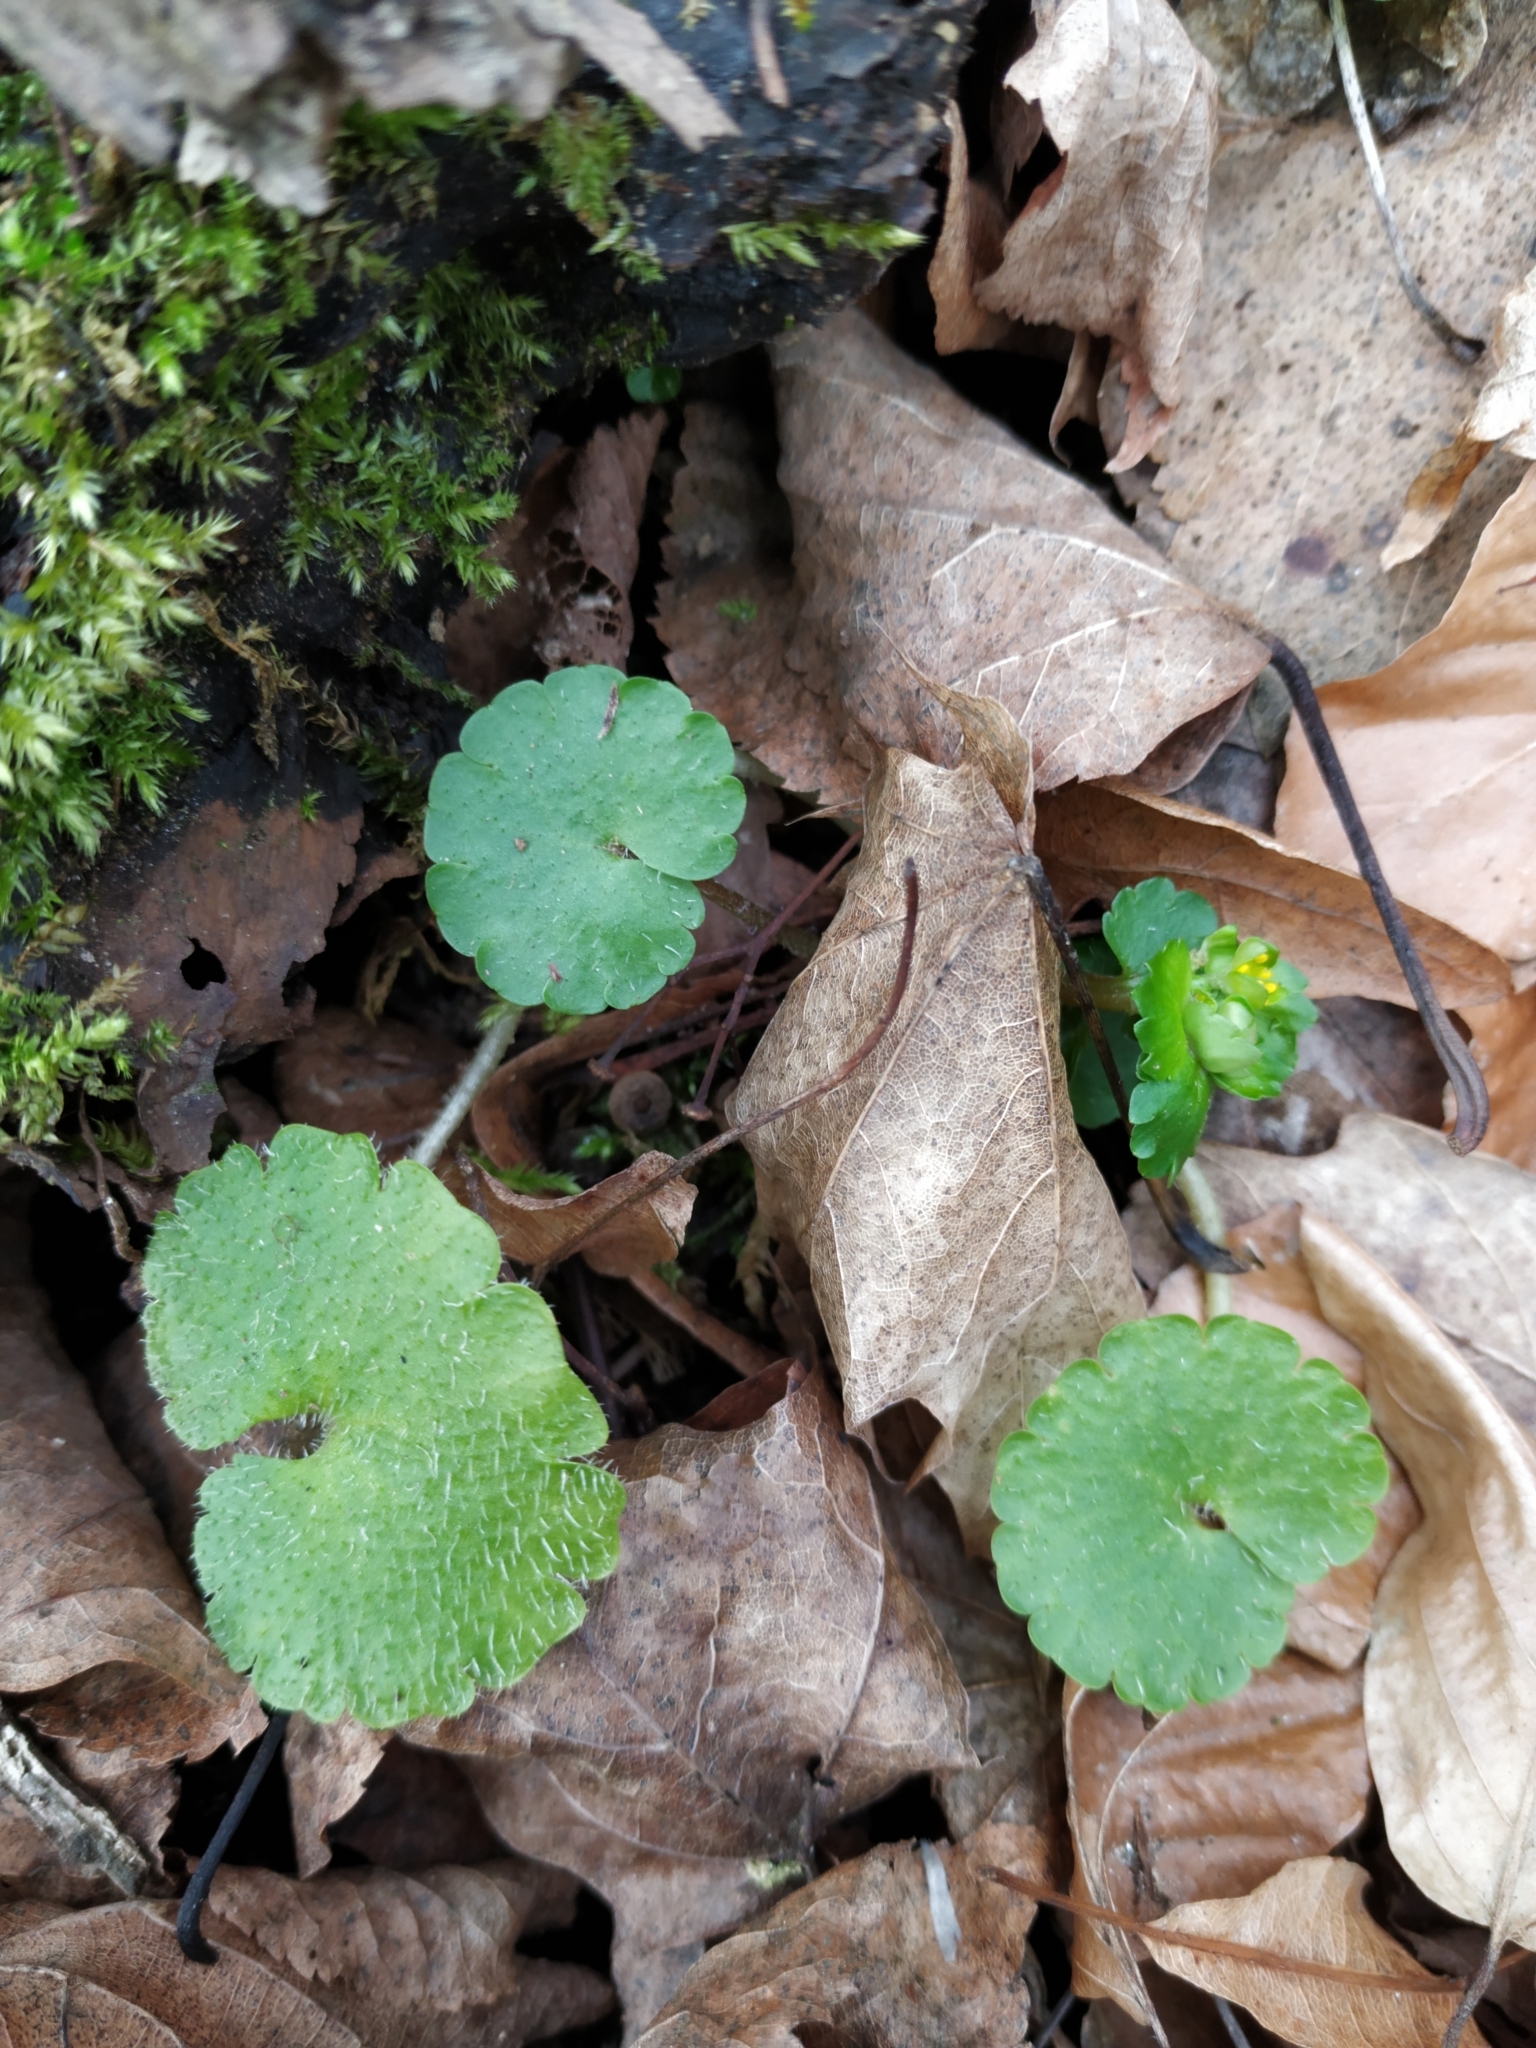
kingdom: Plantae
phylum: Tracheophyta
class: Magnoliopsida
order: Saxifragales
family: Saxifragaceae
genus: Chrysosplenium
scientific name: Chrysosplenium alternifolium
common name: Alternate-leaved golden-saxifrage
